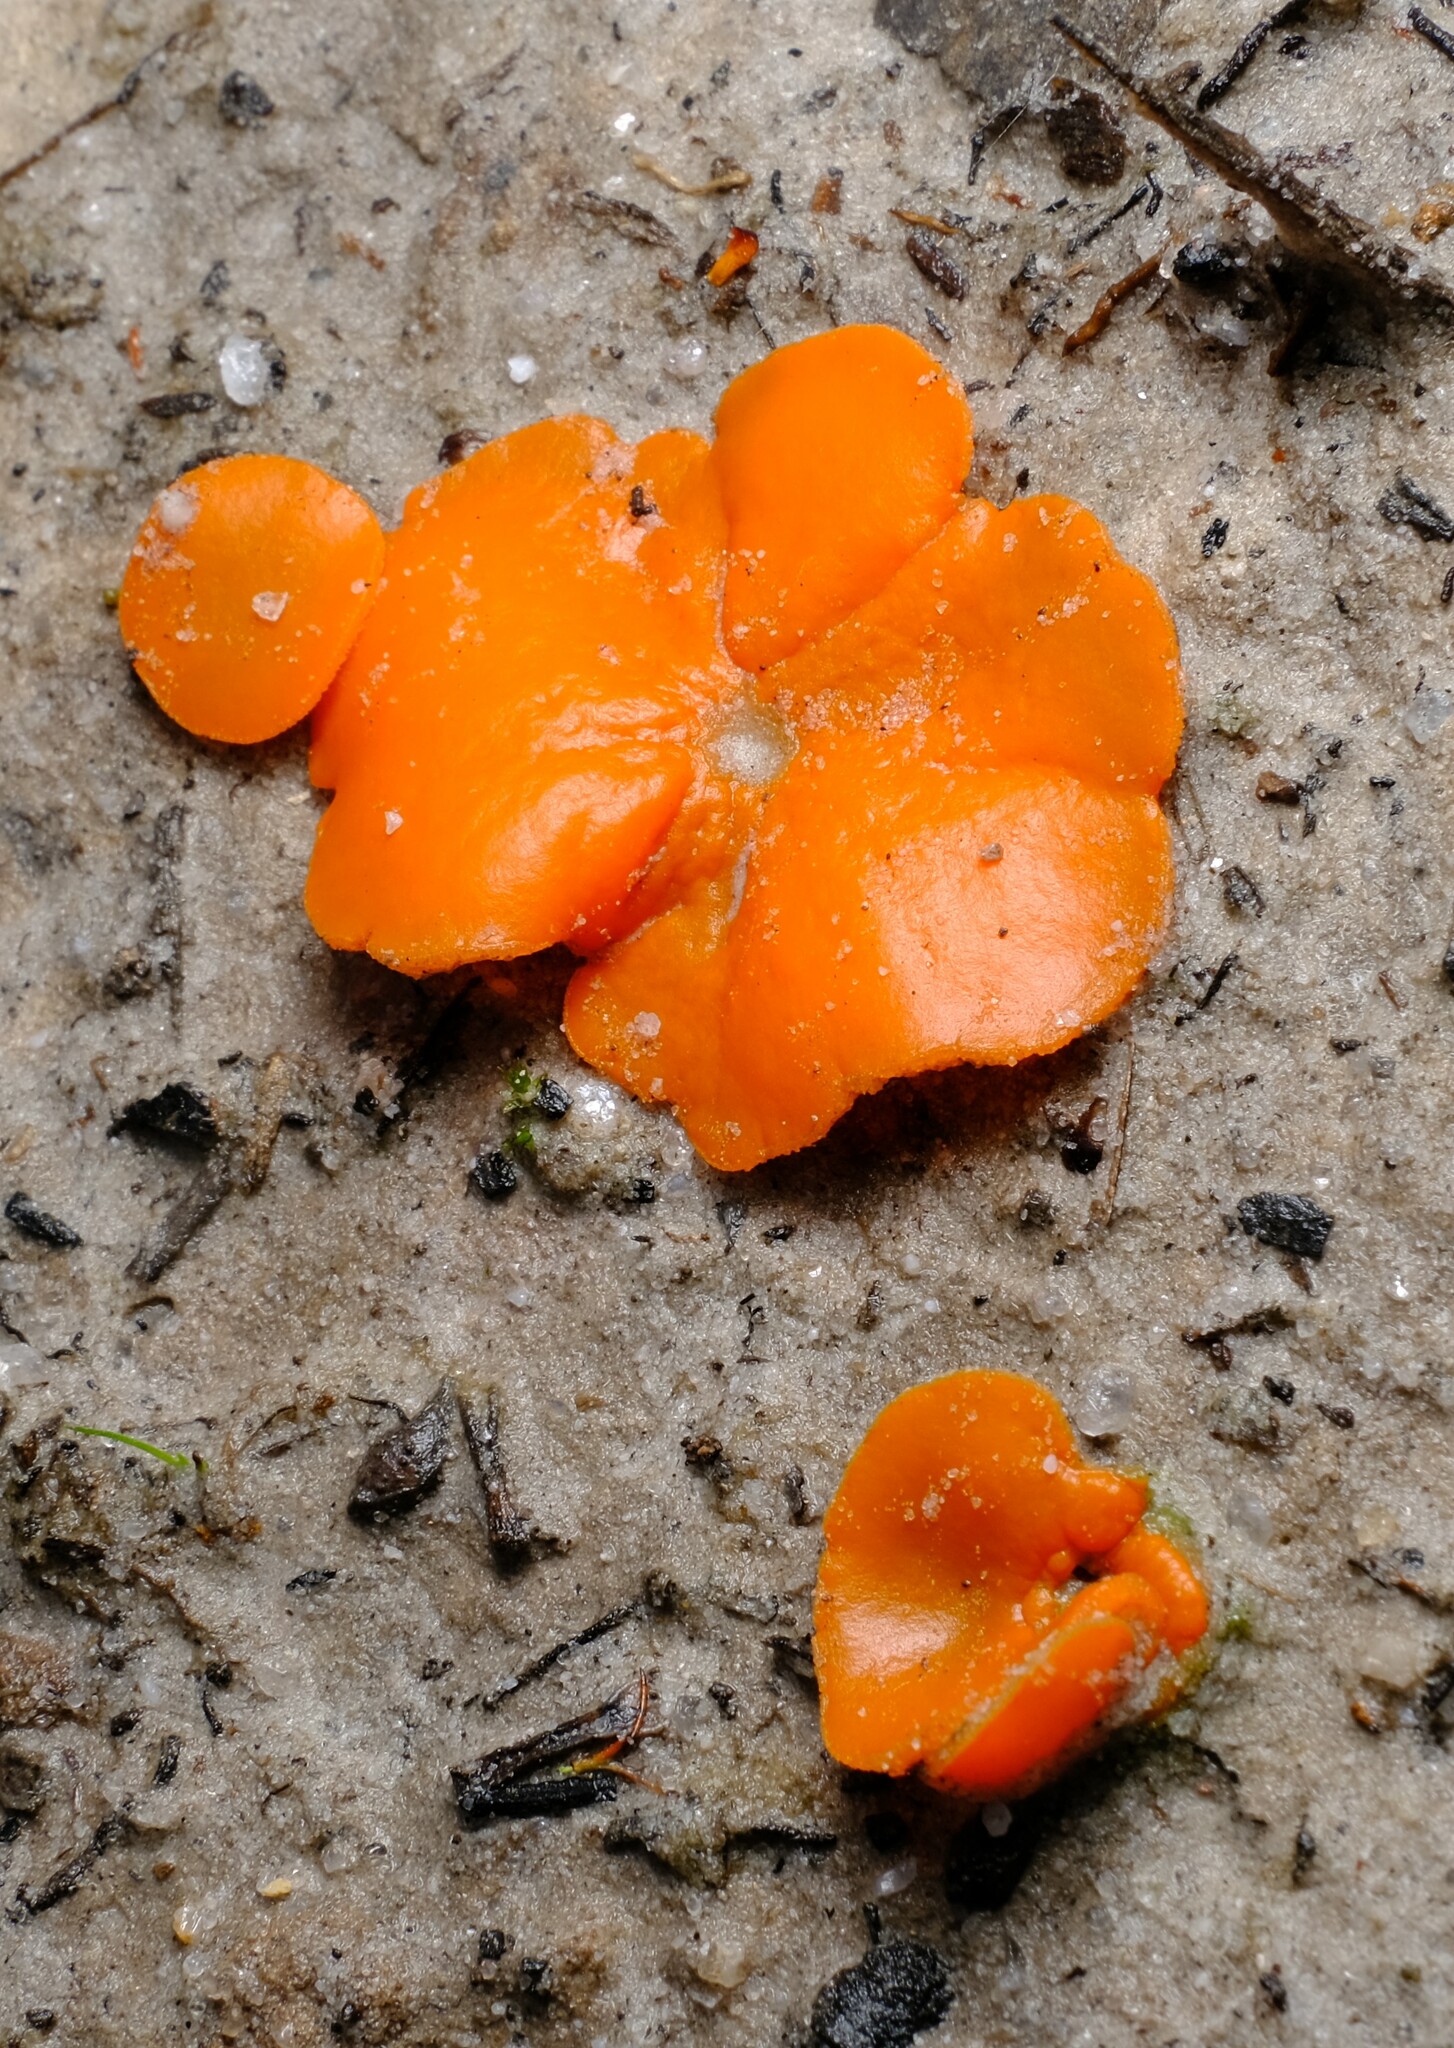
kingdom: Fungi
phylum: Ascomycota
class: Pezizomycetes
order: Pezizales
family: Pyronemataceae
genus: Aleuria
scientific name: Aleuria aurantia
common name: Orange peel fungus
